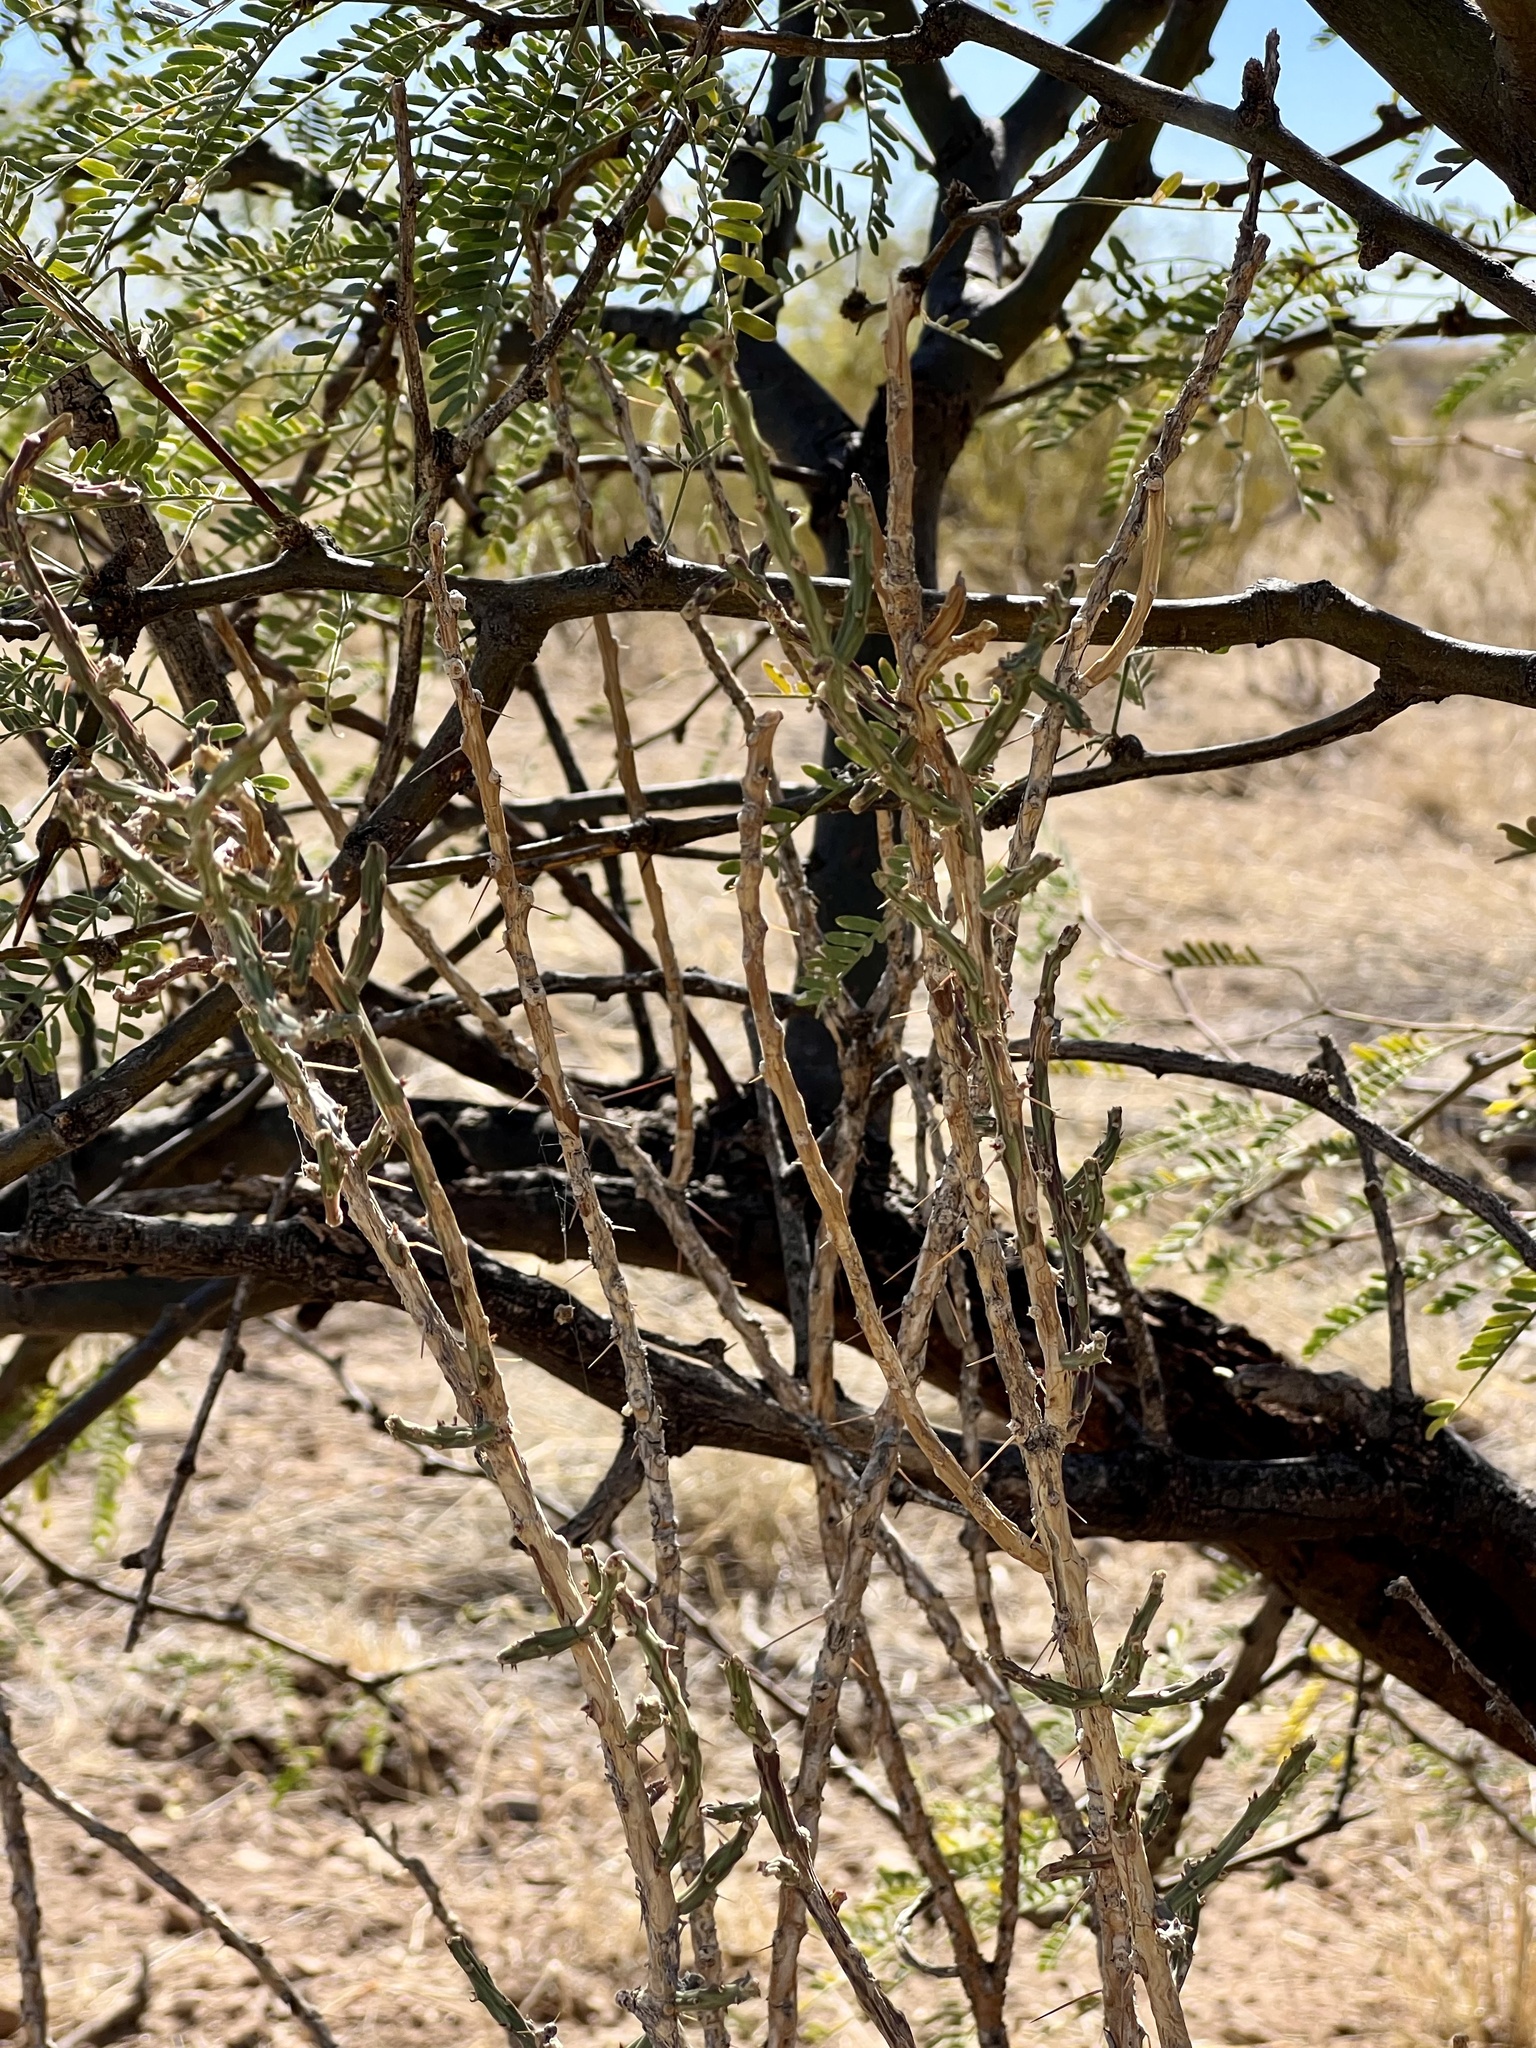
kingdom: Plantae
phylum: Tracheophyta
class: Magnoliopsida
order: Caryophyllales
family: Cactaceae
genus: Cylindropuntia
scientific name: Cylindropuntia leptocaulis
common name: Christmas cactus
